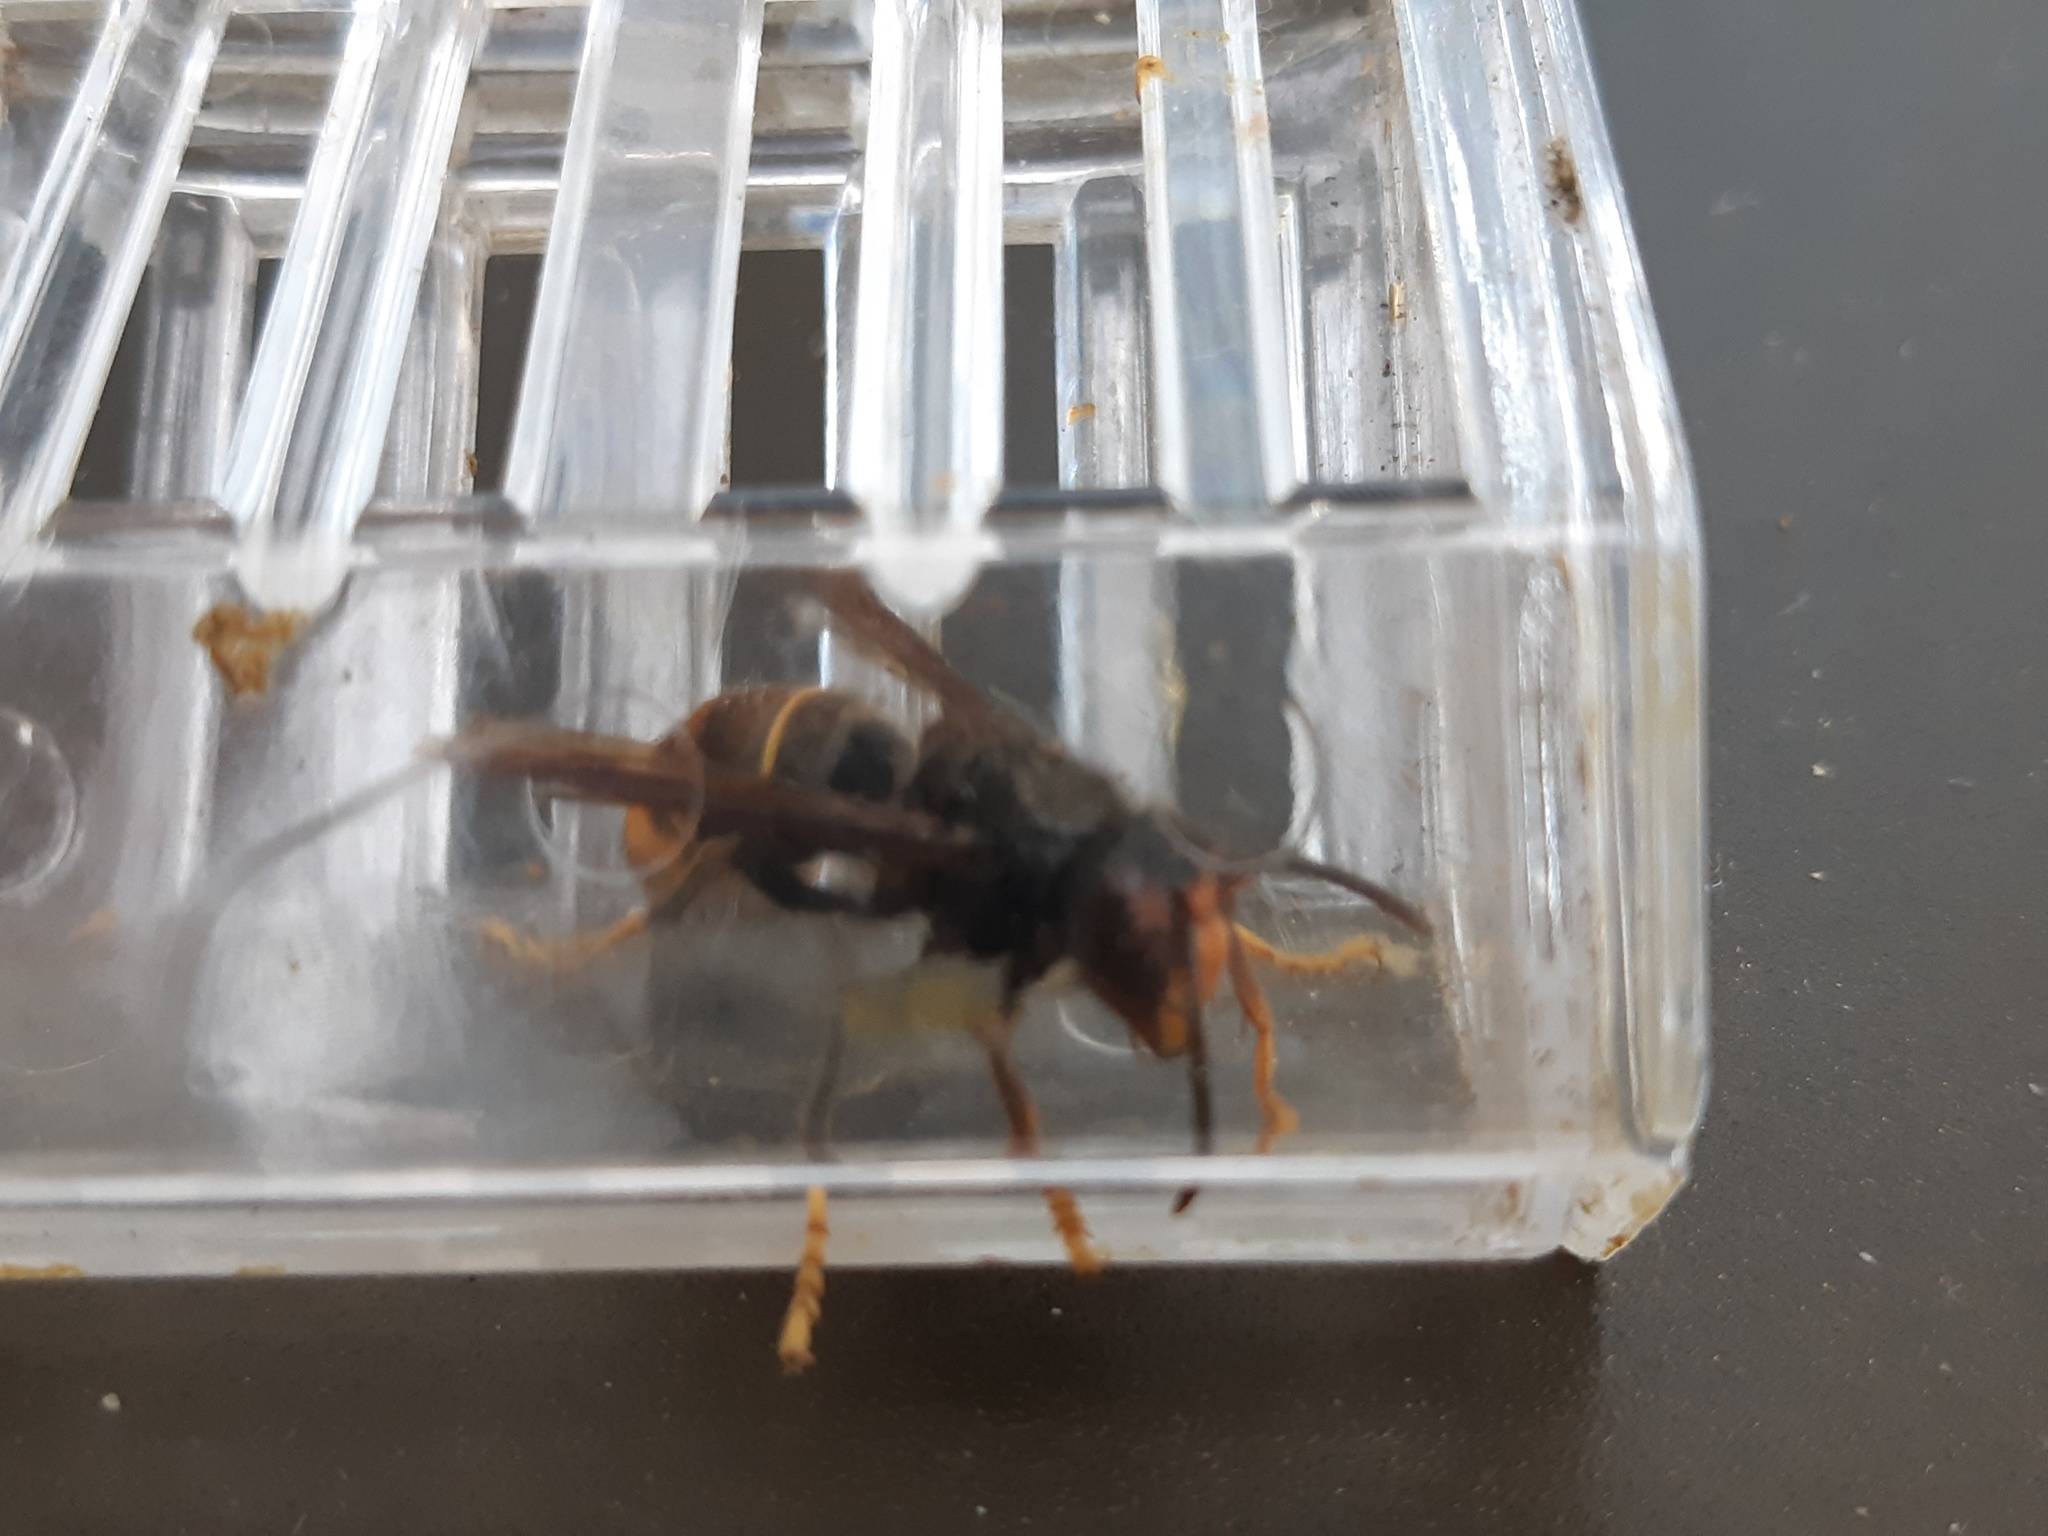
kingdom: Animalia
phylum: Arthropoda
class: Insecta
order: Hymenoptera
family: Vespidae
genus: Vespa
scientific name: Vespa velutina
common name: Asian hornet
